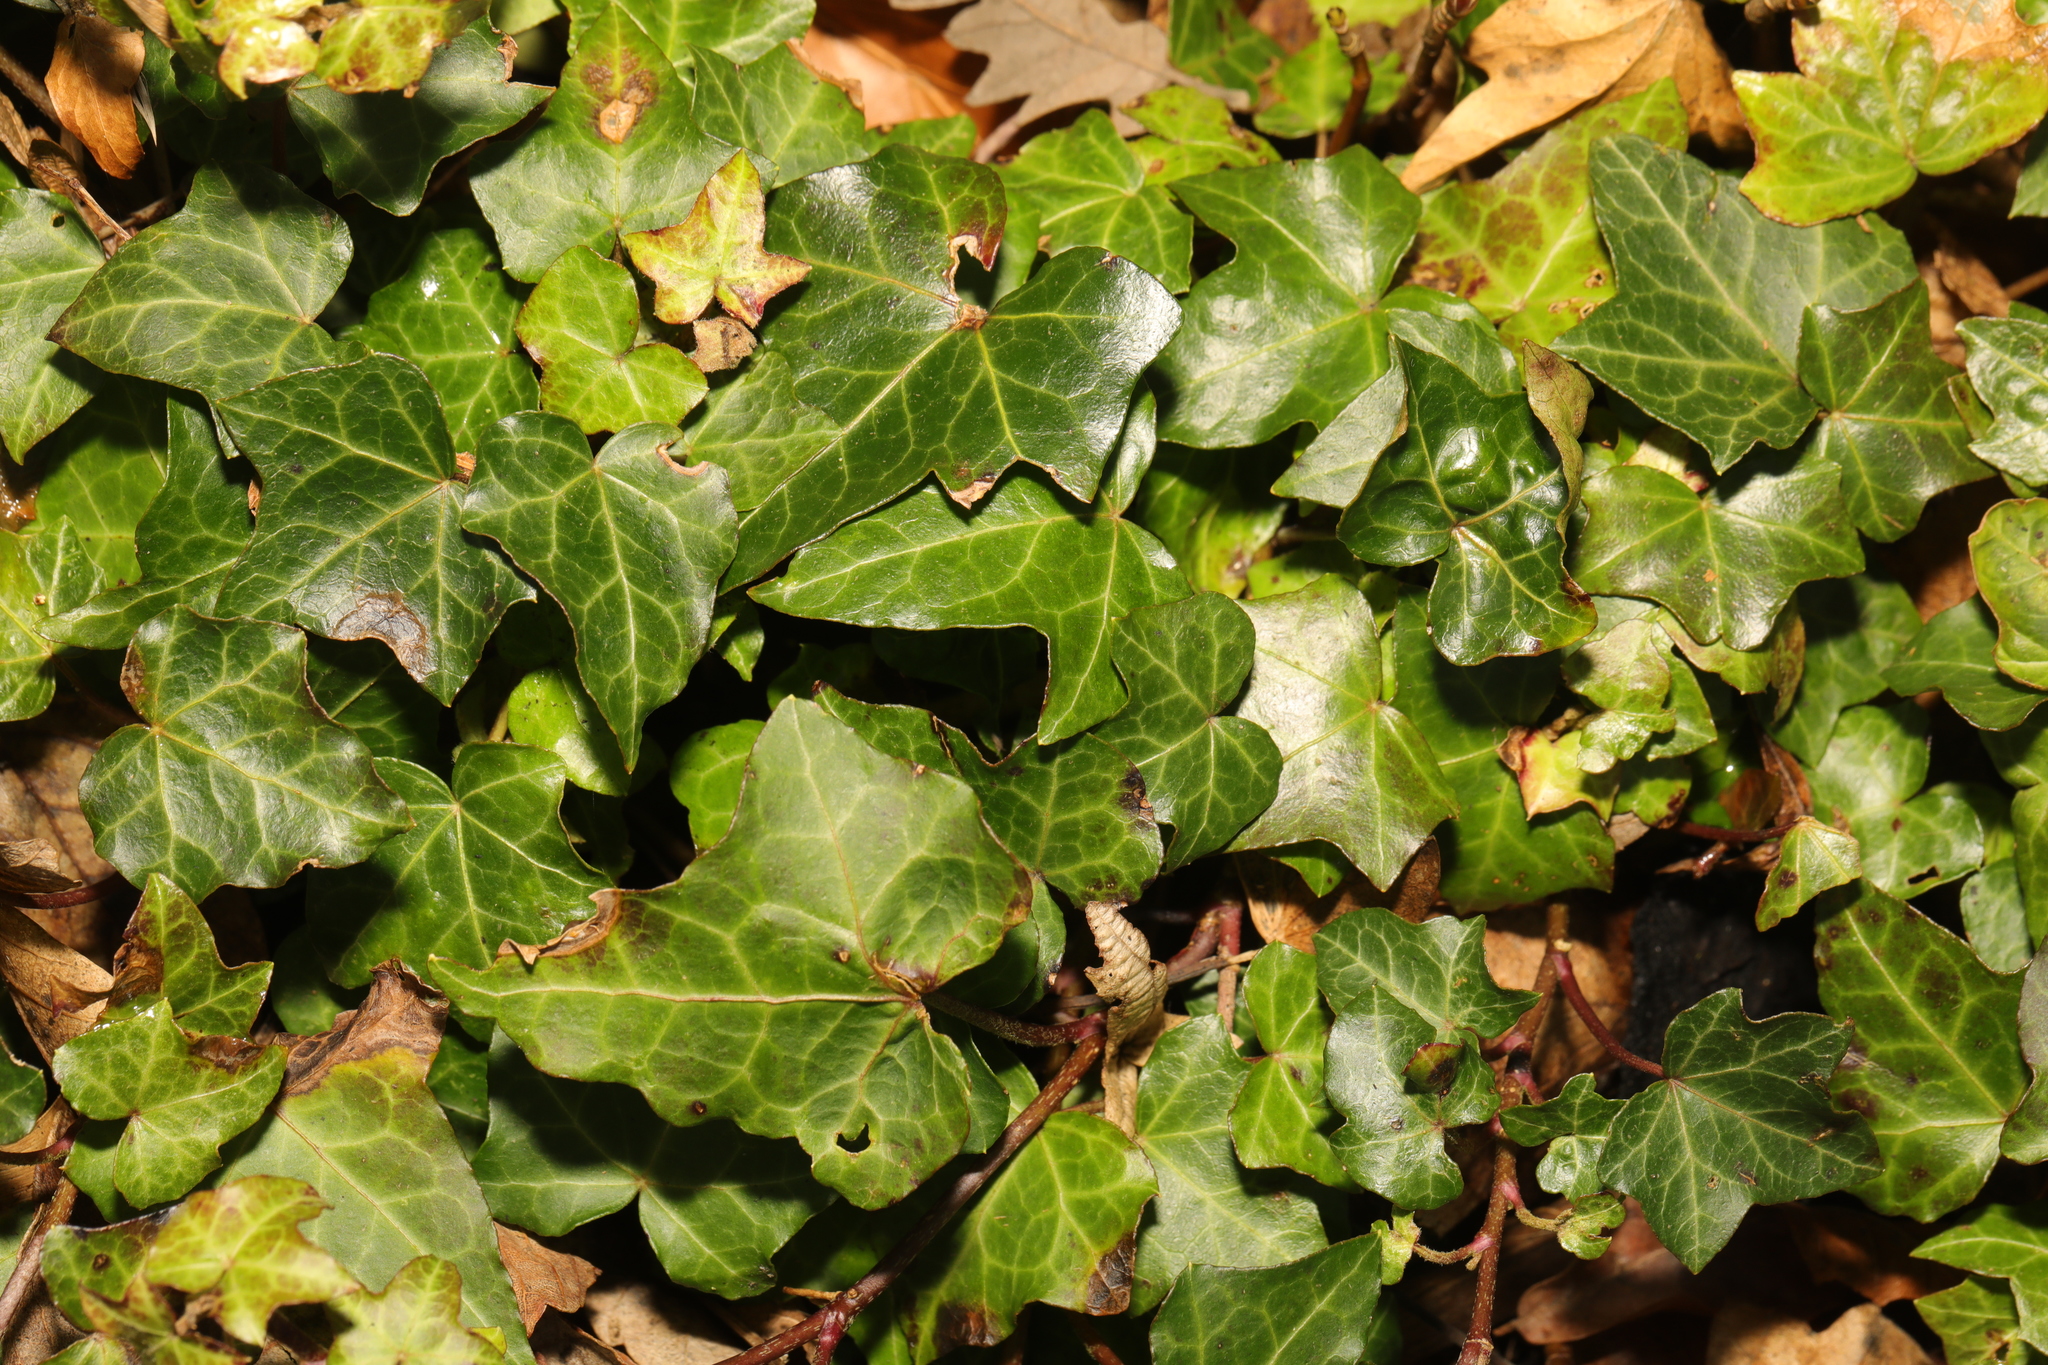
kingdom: Plantae
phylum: Tracheophyta
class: Magnoliopsida
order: Apiales
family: Araliaceae
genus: Hedera
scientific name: Hedera helix
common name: Ivy
